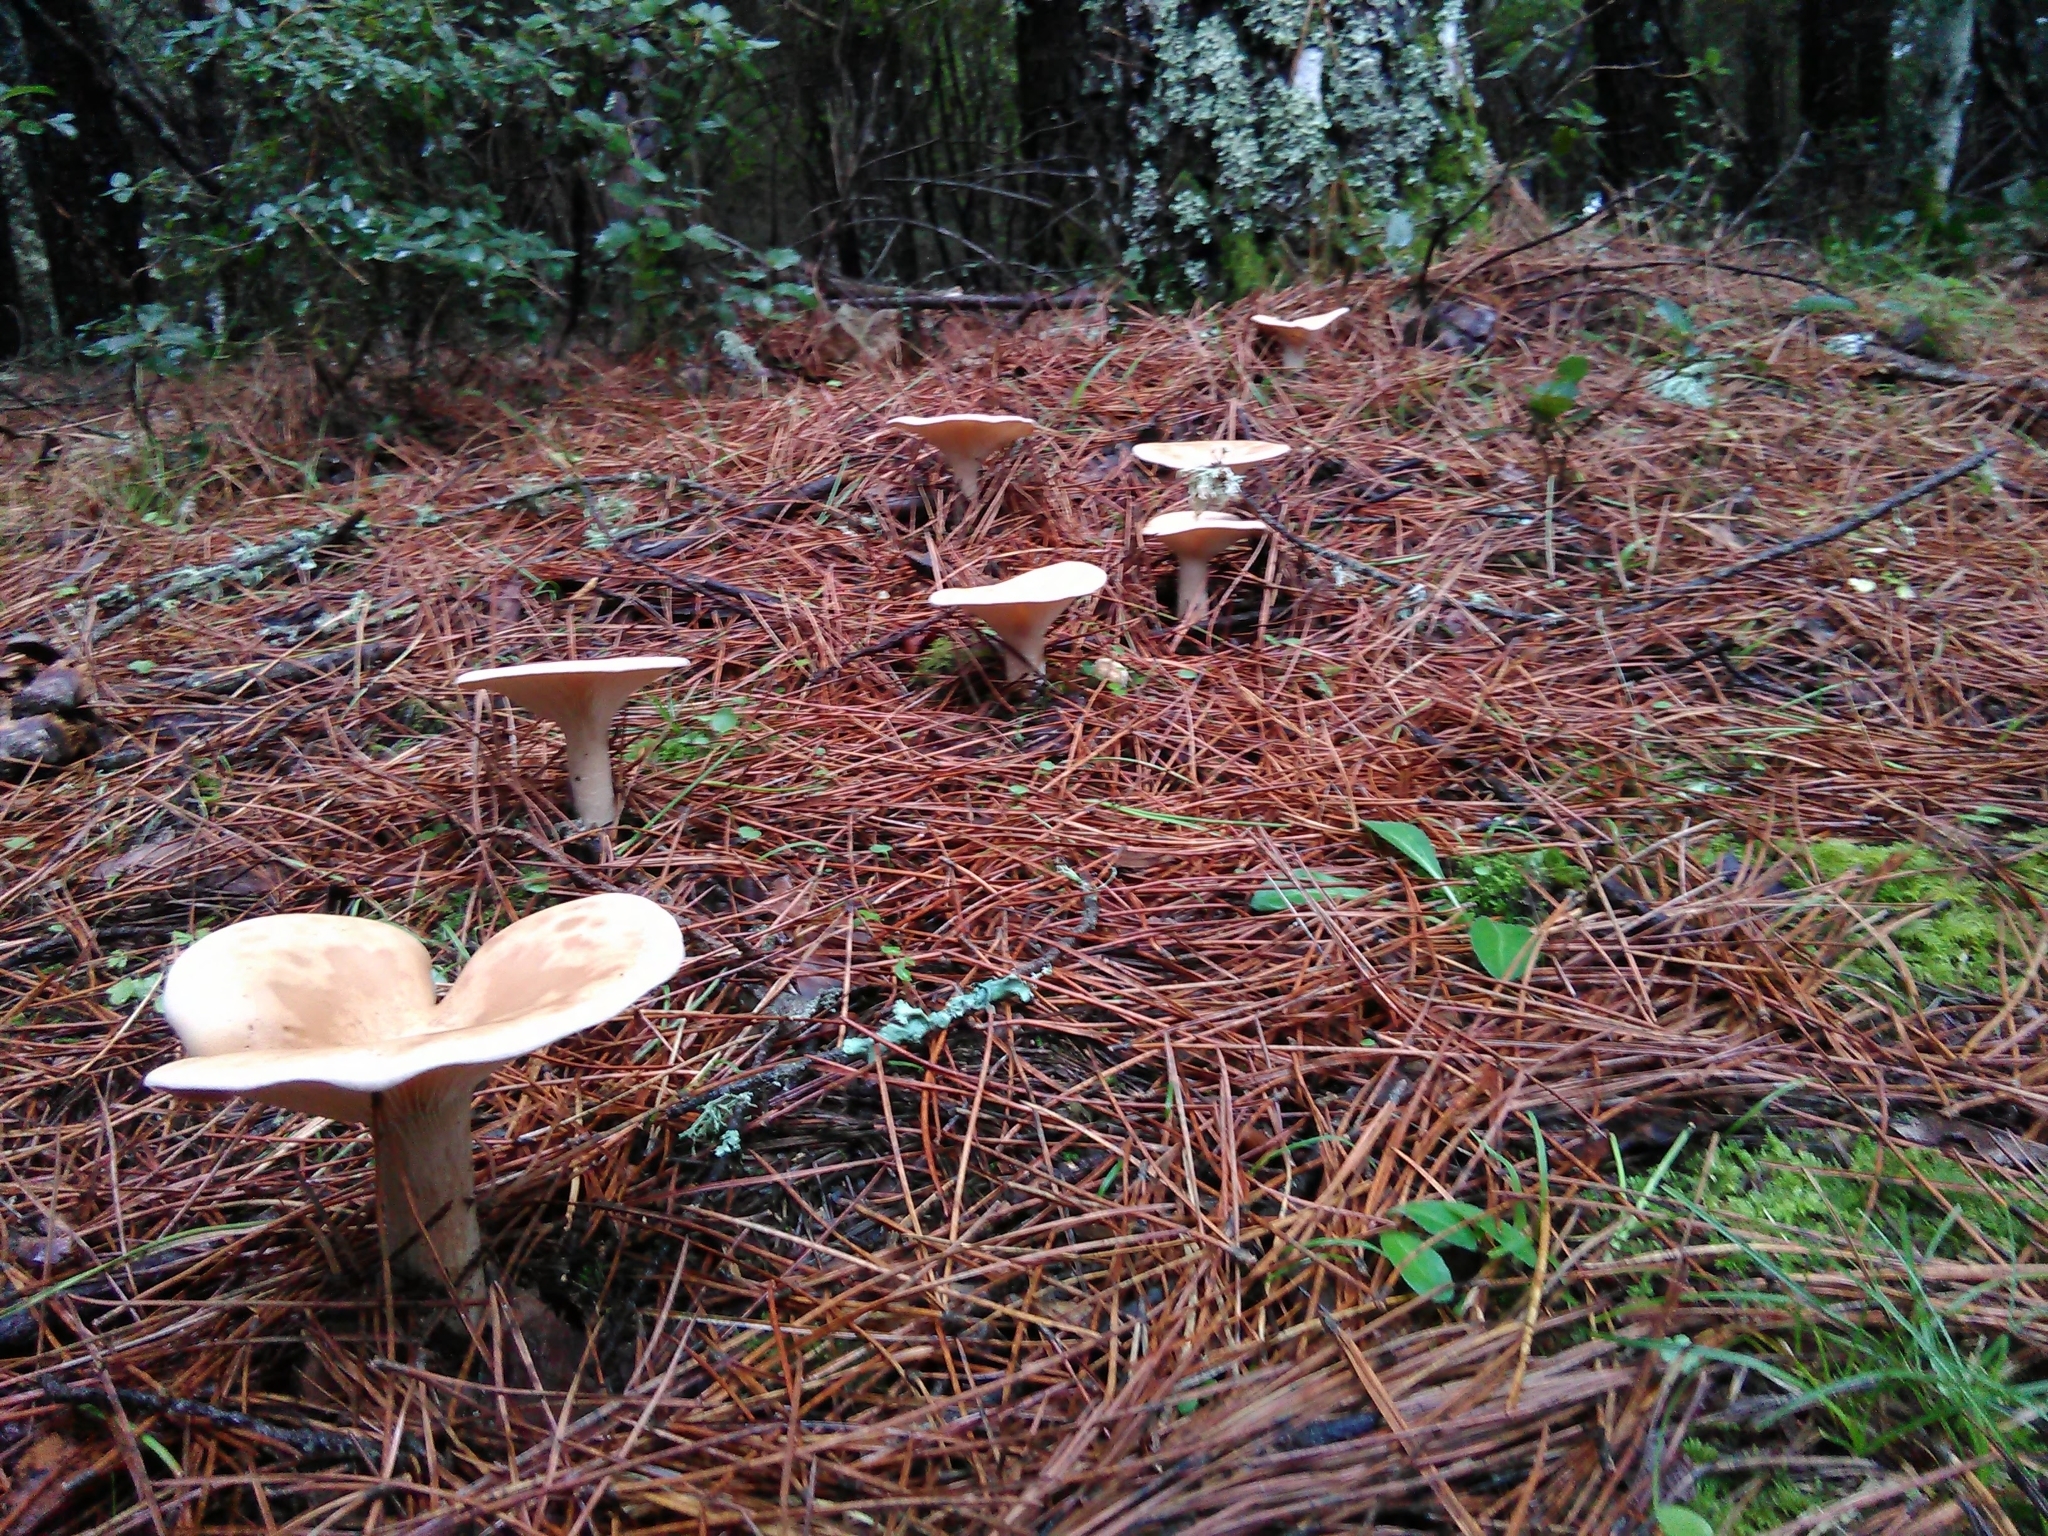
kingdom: Fungi
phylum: Basidiomycota
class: Agaricomycetes
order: Agaricales
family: Tricholomataceae
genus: Infundibulicybe
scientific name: Infundibulicybe geotropa
